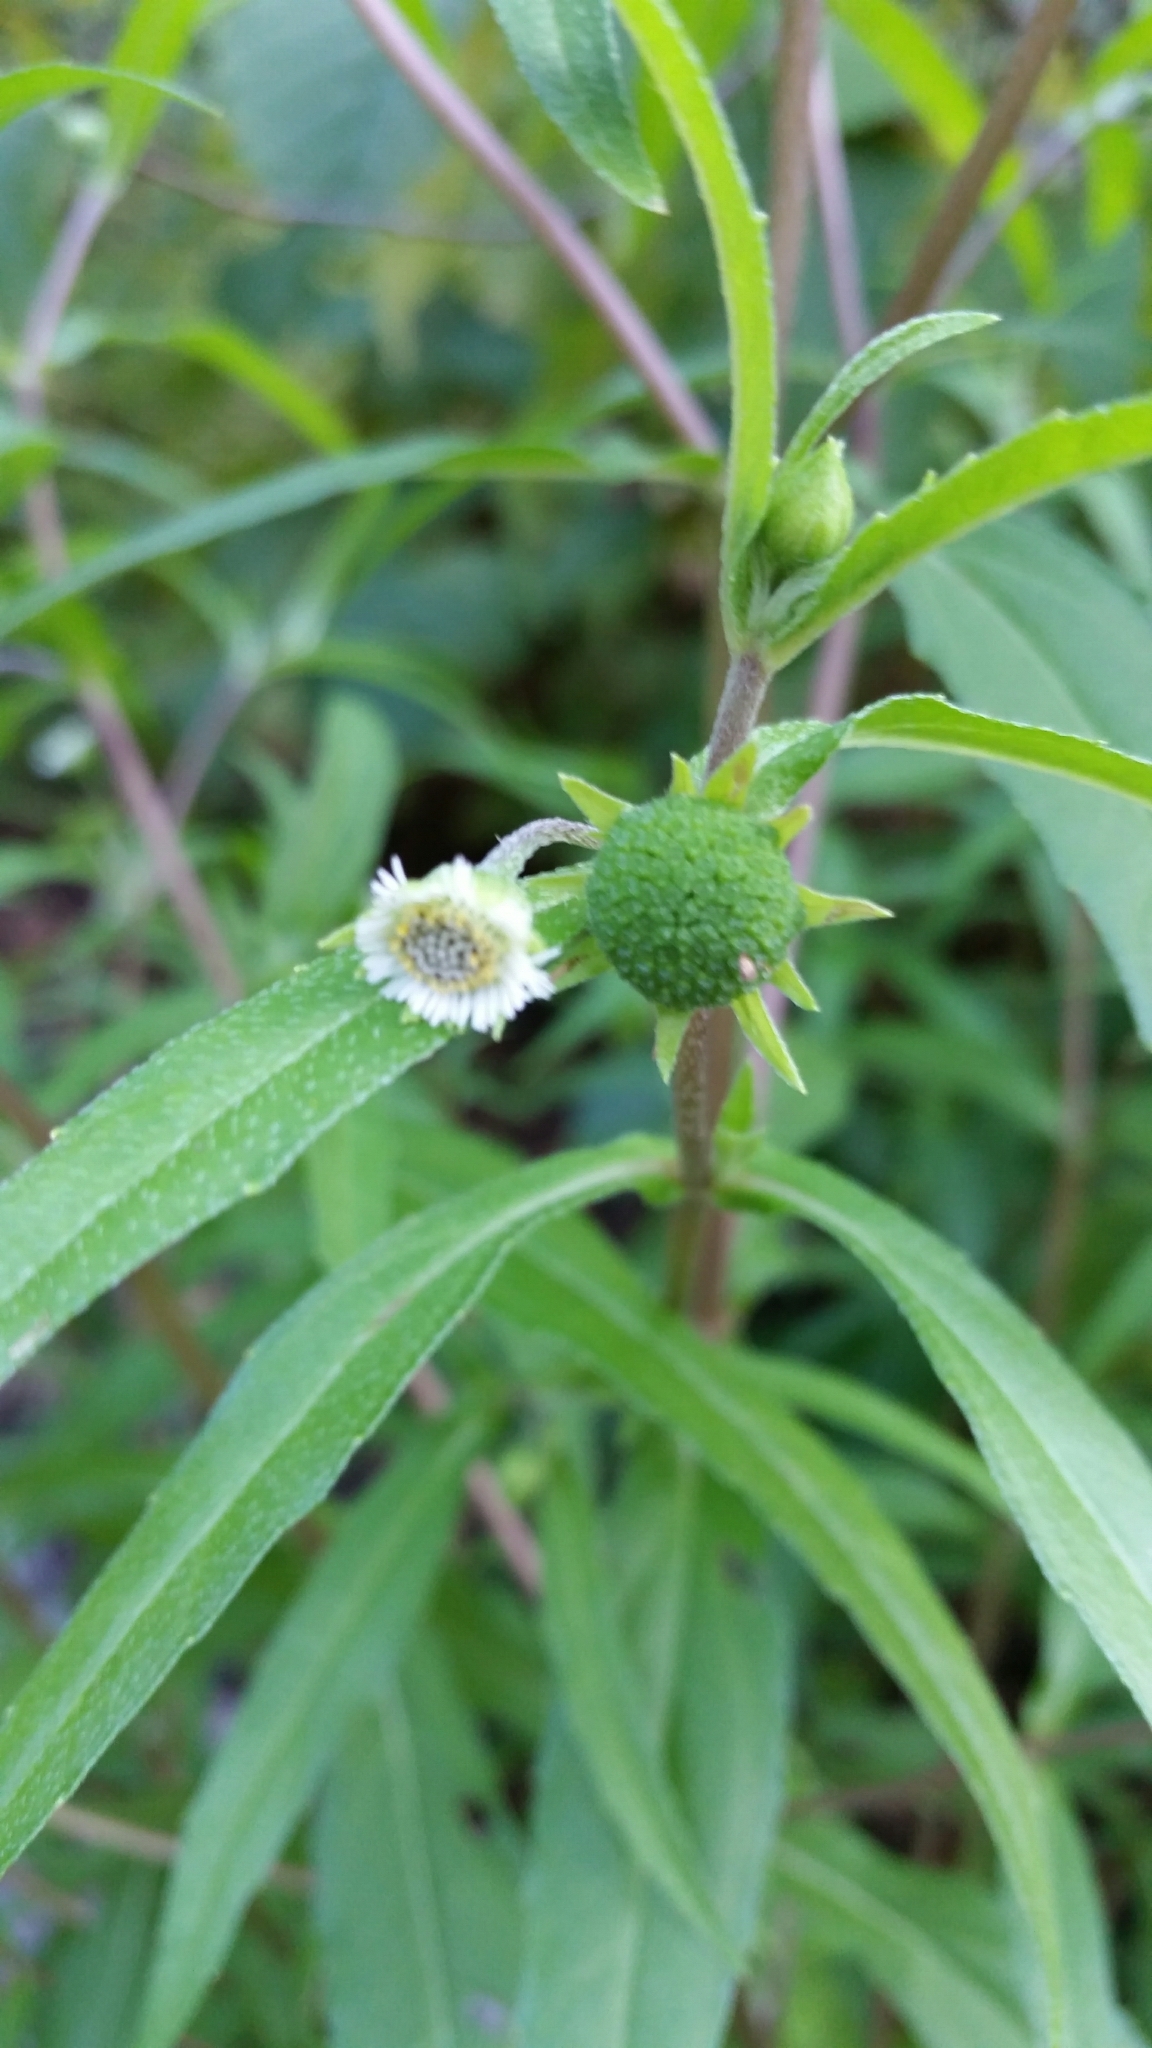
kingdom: Plantae
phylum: Tracheophyta
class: Magnoliopsida
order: Asterales
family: Asteraceae
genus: Eclipta
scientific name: Eclipta prostrata
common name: False daisy
